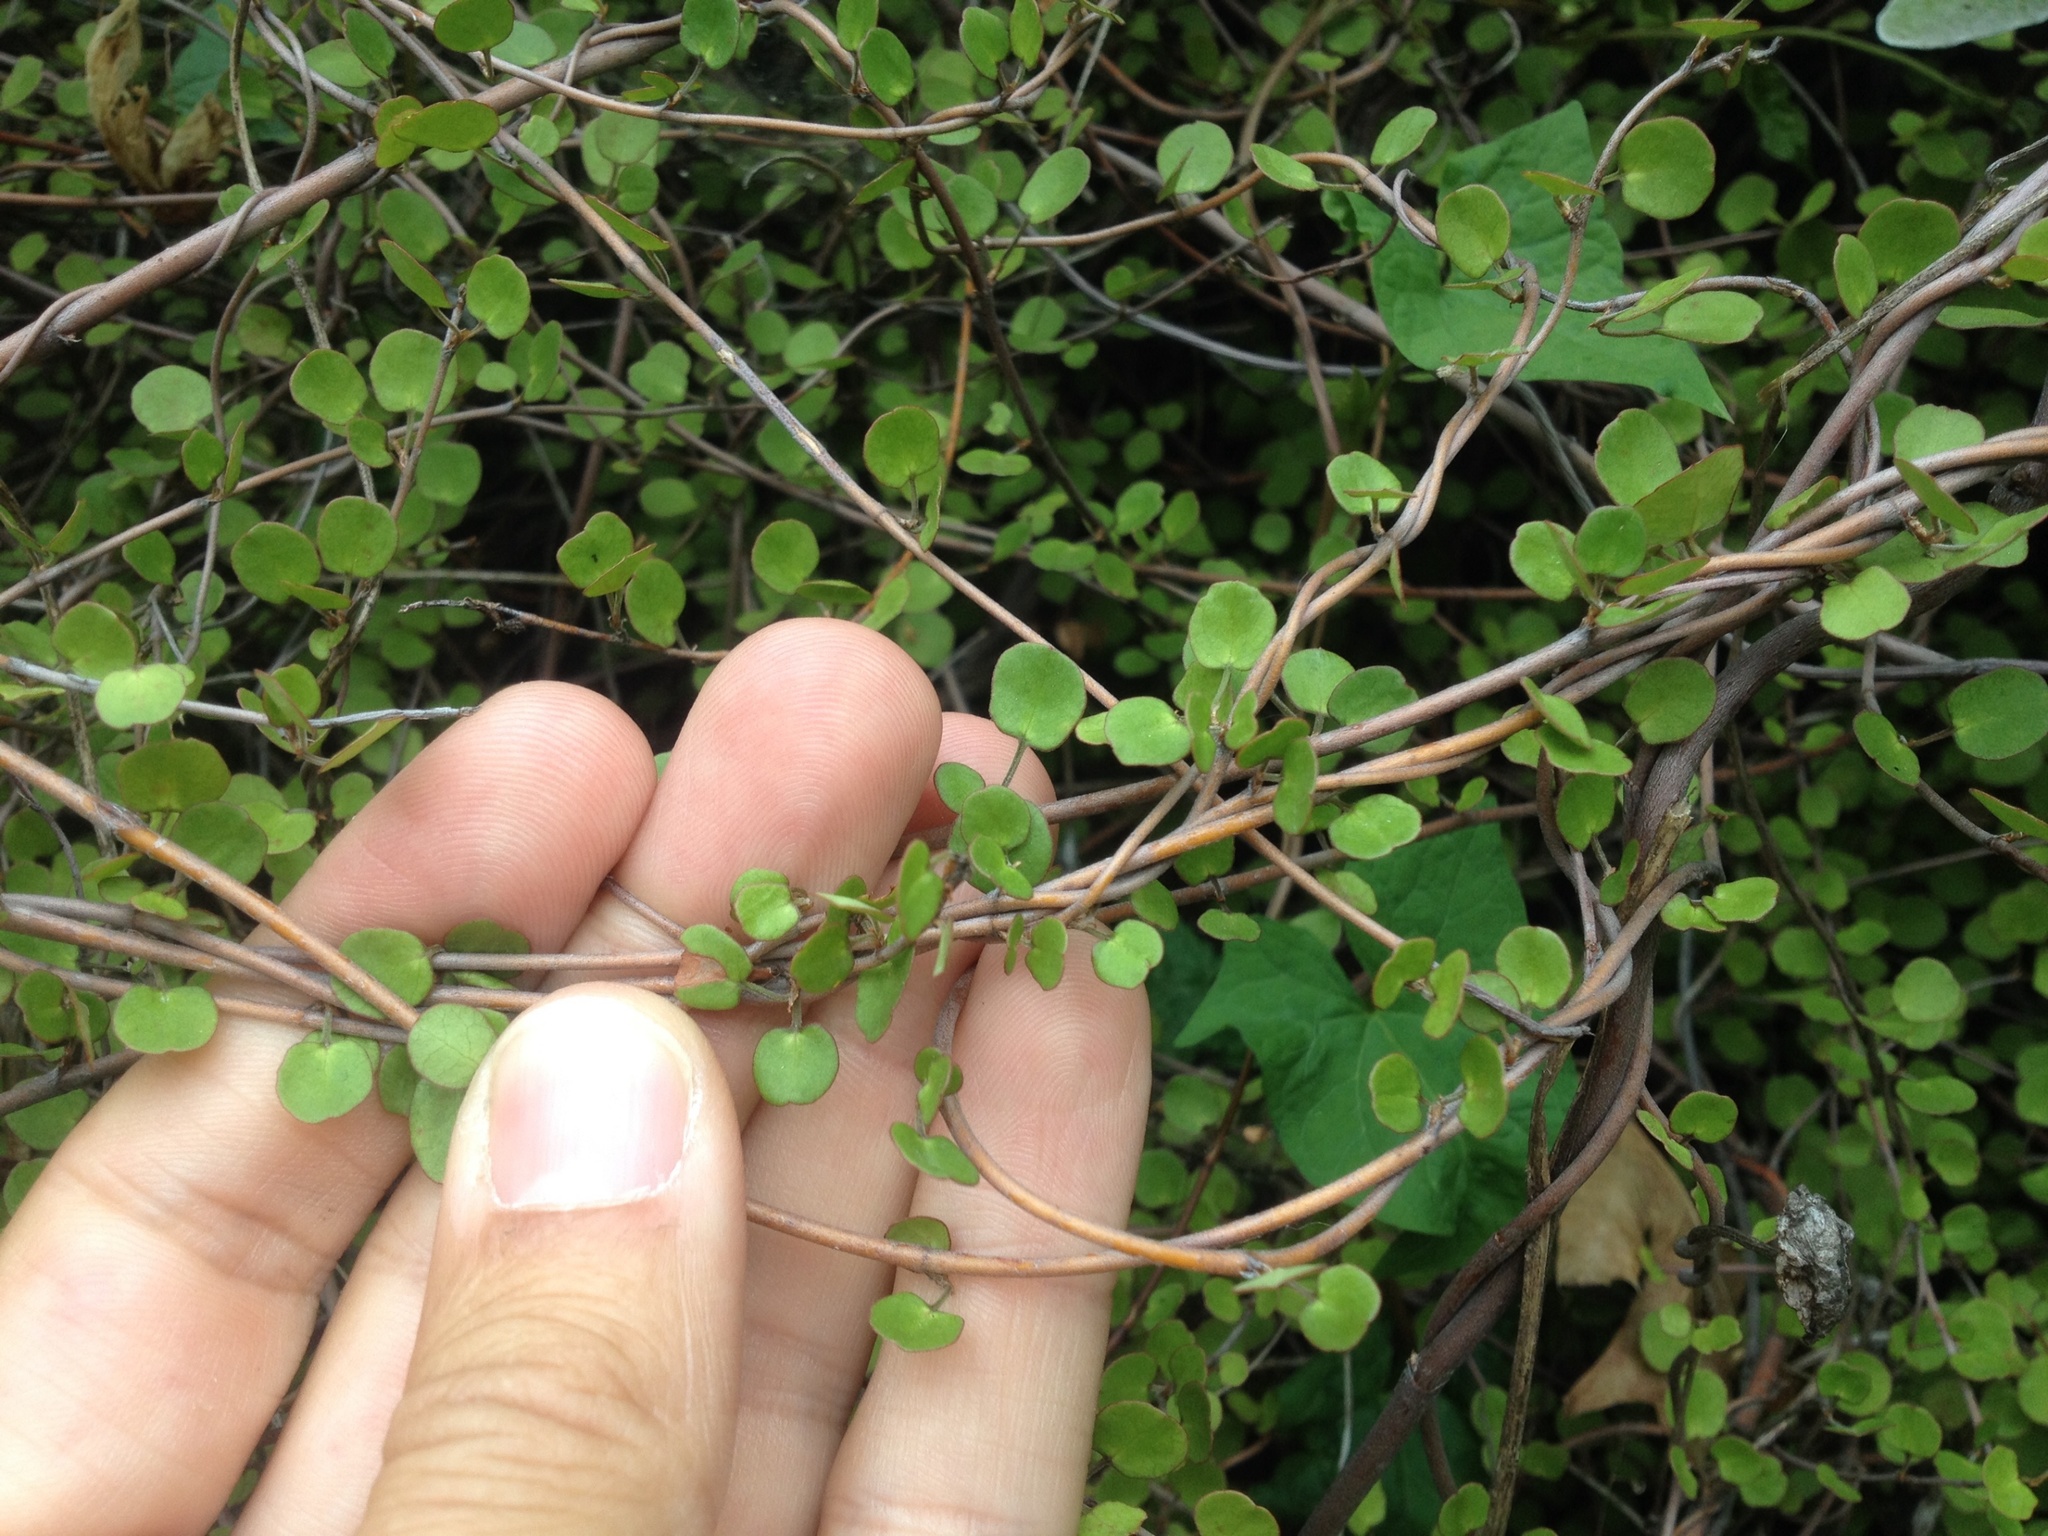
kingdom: Plantae
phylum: Tracheophyta
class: Magnoliopsida
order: Caryophyllales
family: Polygonaceae
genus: Muehlenbeckia
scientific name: Muehlenbeckia complexa
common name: Wireplant
